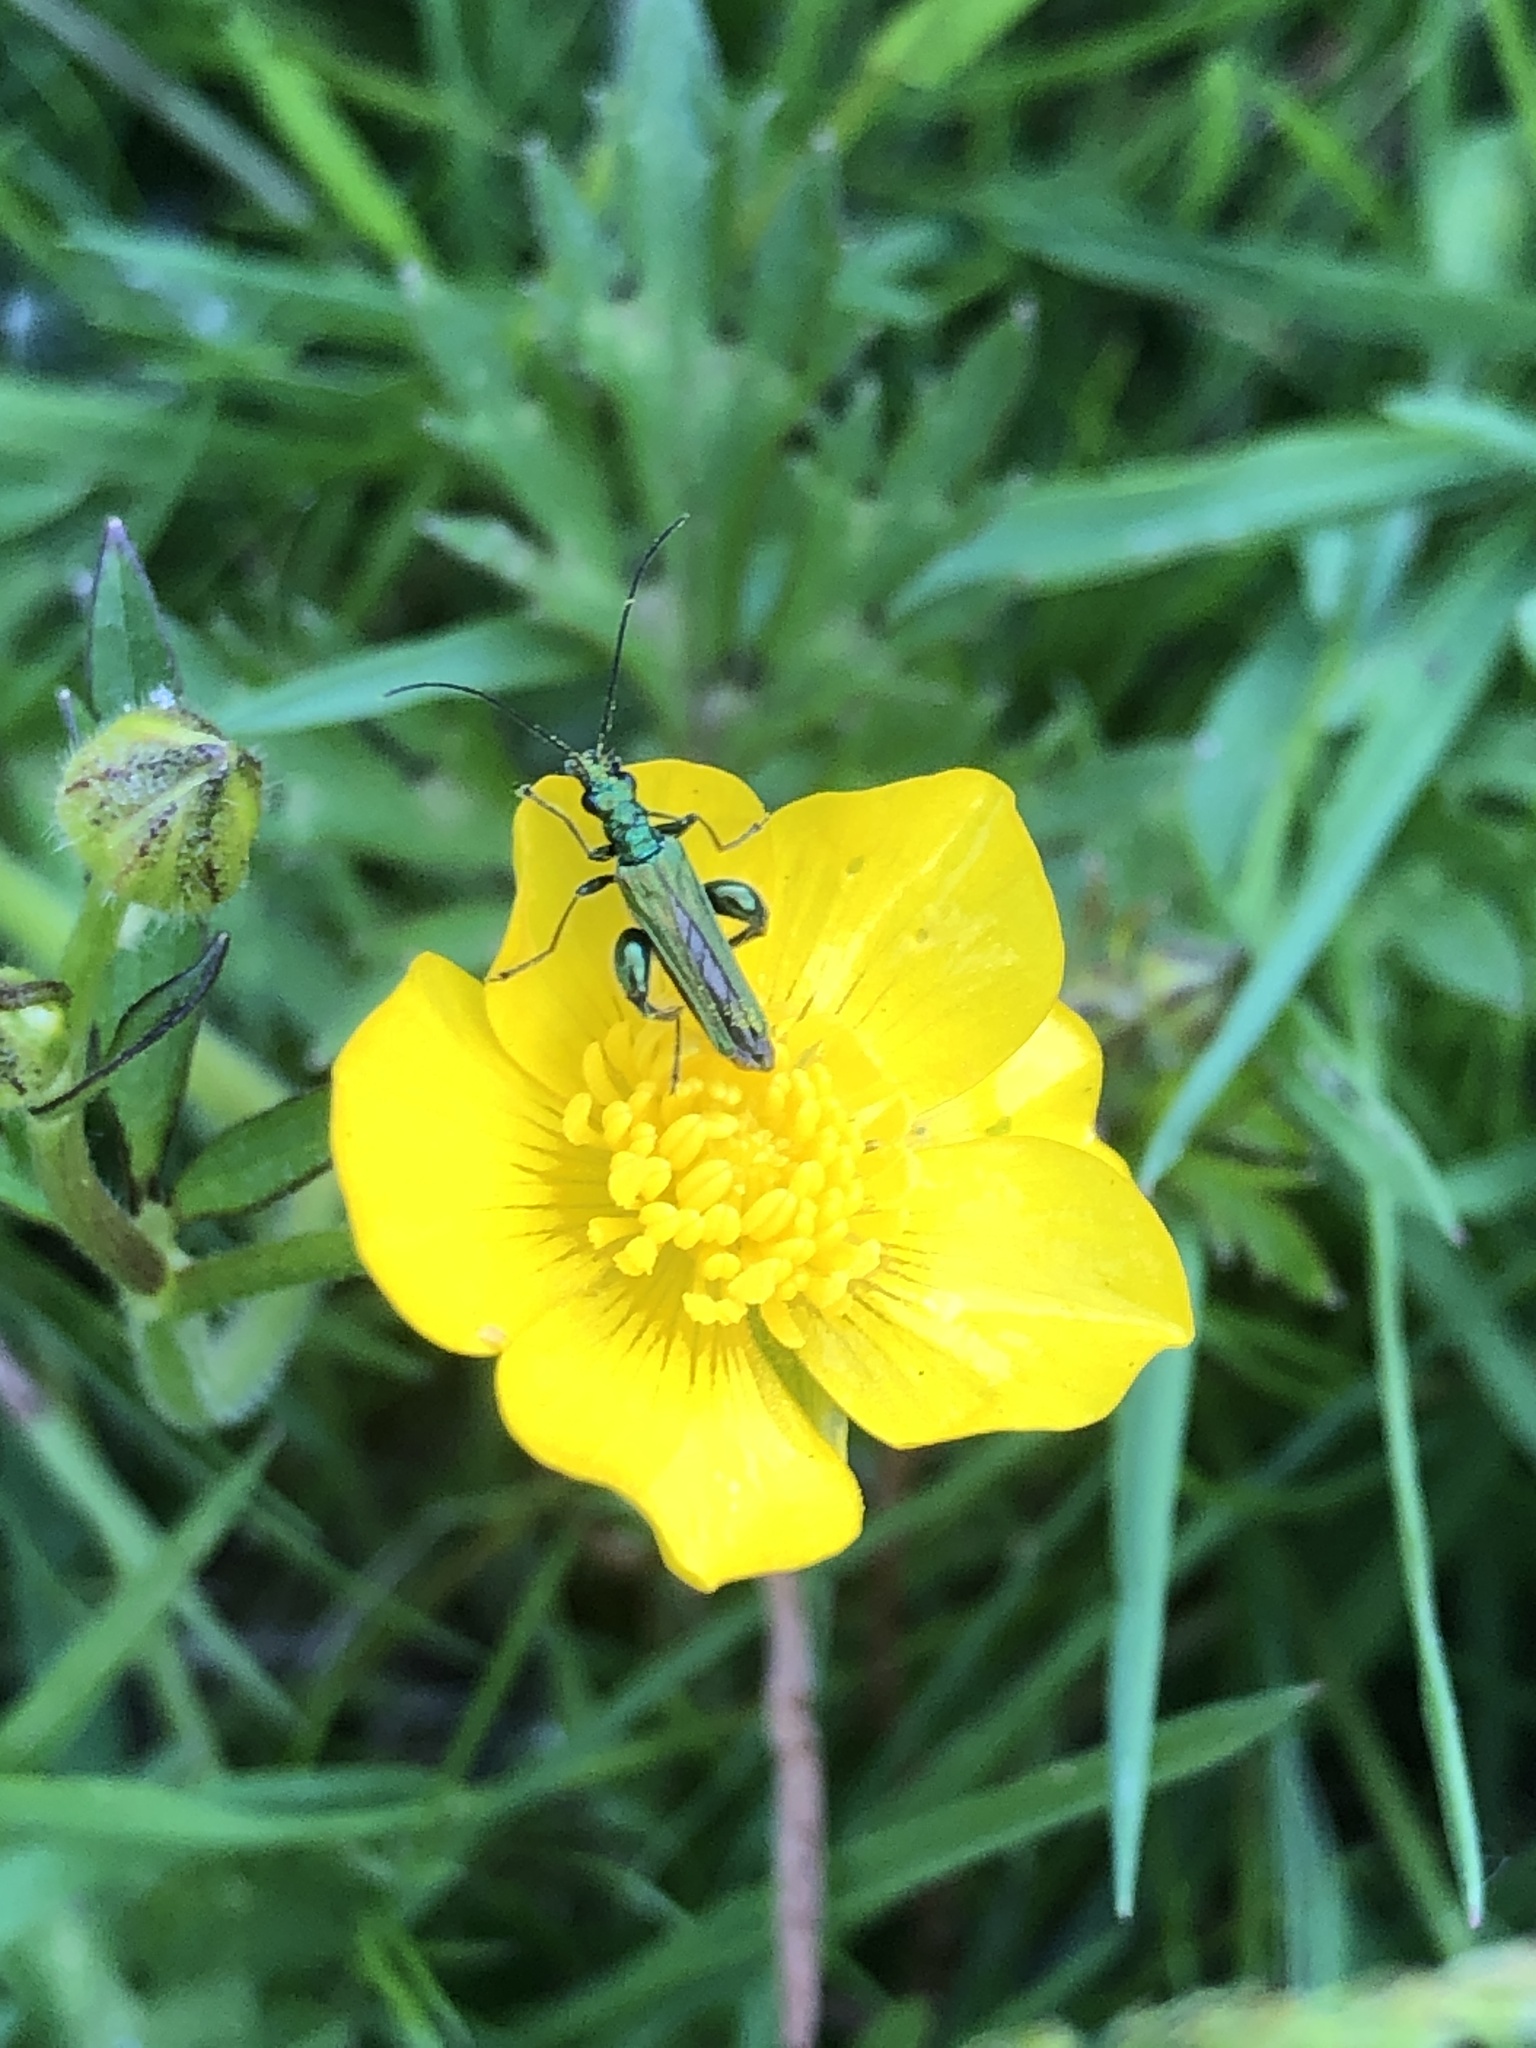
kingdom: Animalia
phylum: Arthropoda
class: Insecta
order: Coleoptera
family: Oedemeridae
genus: Oedemera
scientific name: Oedemera nobilis
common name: Swollen-thighed beetle
